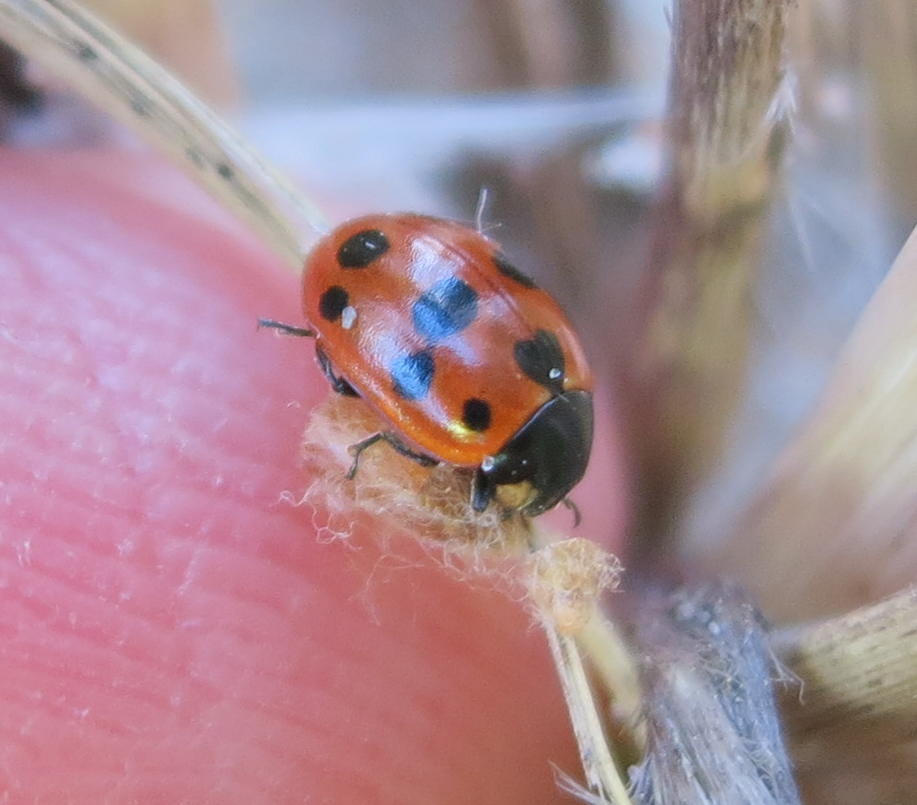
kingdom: Animalia
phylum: Arthropoda
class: Insecta
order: Coleoptera
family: Coccinellidae
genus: Coccinella
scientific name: Coccinella undecimpunctata
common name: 11-spot ladybird
